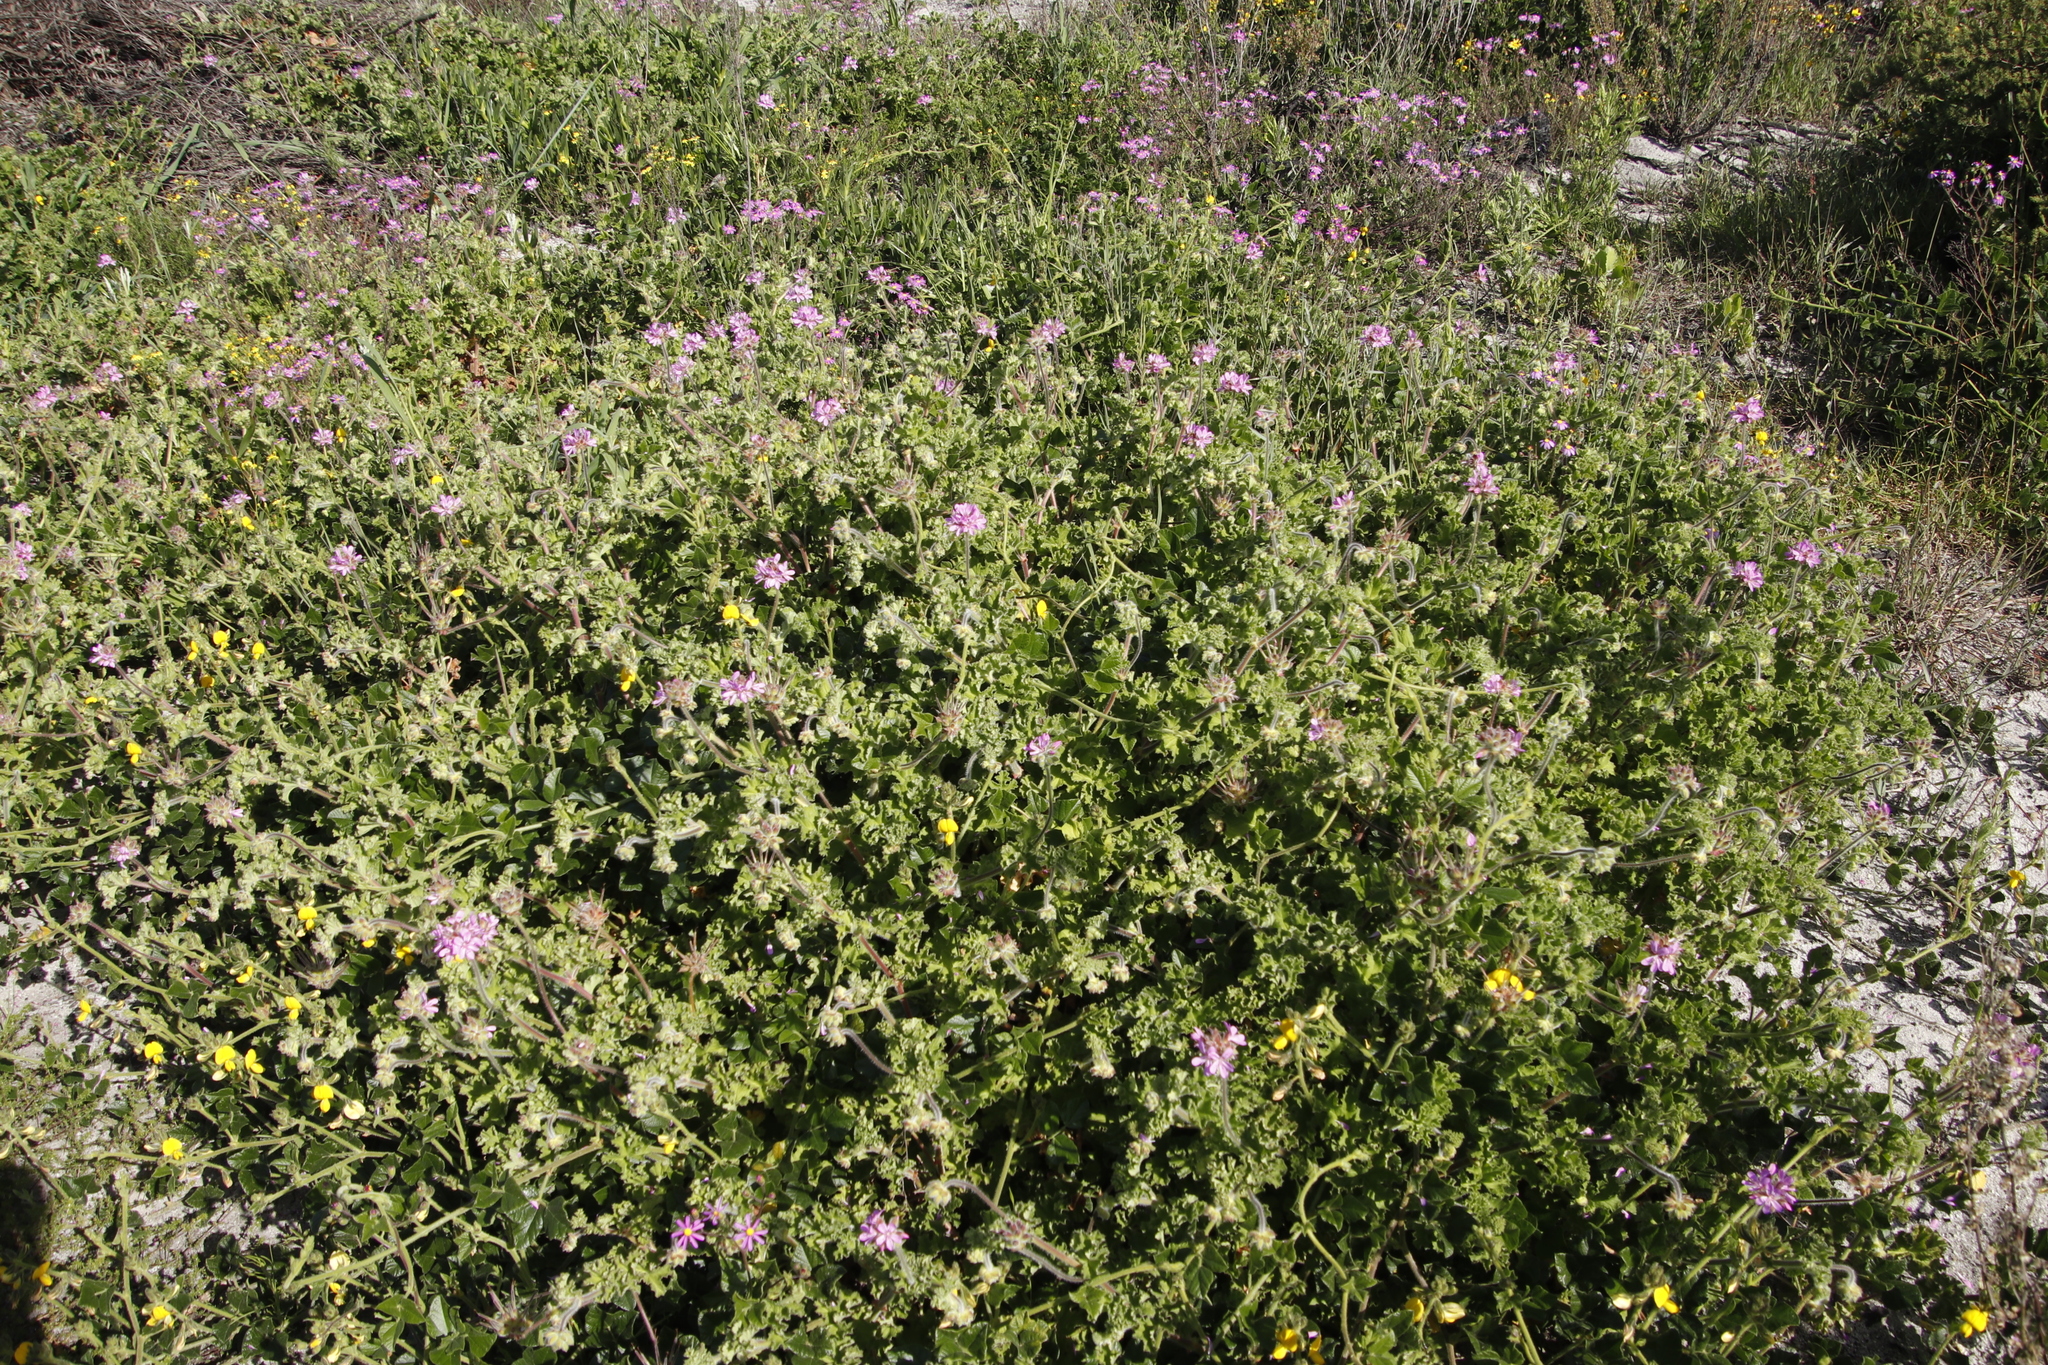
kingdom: Plantae
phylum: Tracheophyta
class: Magnoliopsida
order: Geraniales
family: Geraniaceae
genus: Pelargonium
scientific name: Pelargonium capitatum
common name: Rose scented geranium
